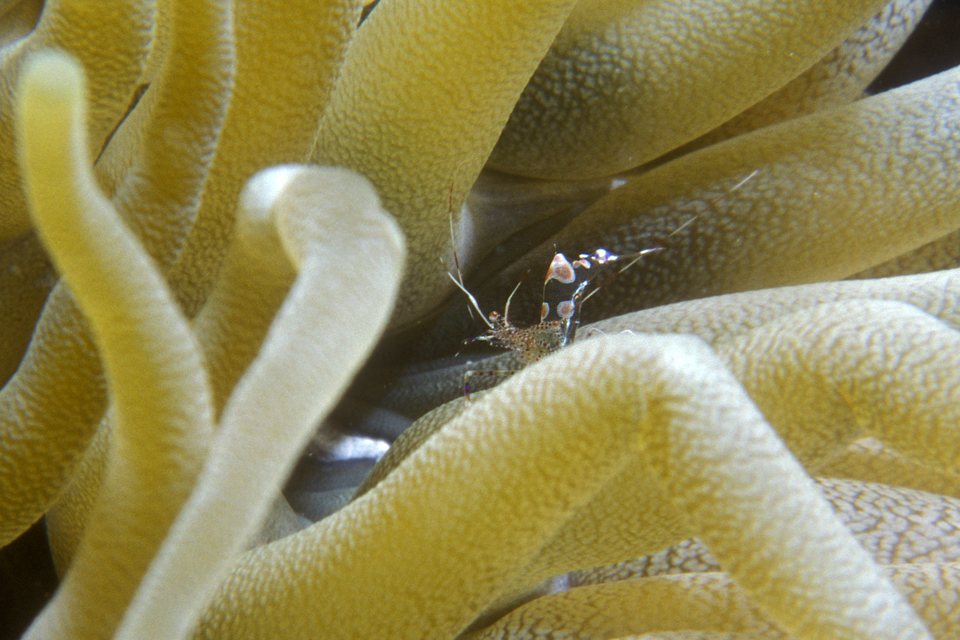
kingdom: Animalia
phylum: Arthropoda
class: Malacostraca
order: Decapoda
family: Palaemonidae
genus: Periclimenes
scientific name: Periclimenes yucatanicus
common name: Spotted cleaning shrimp
